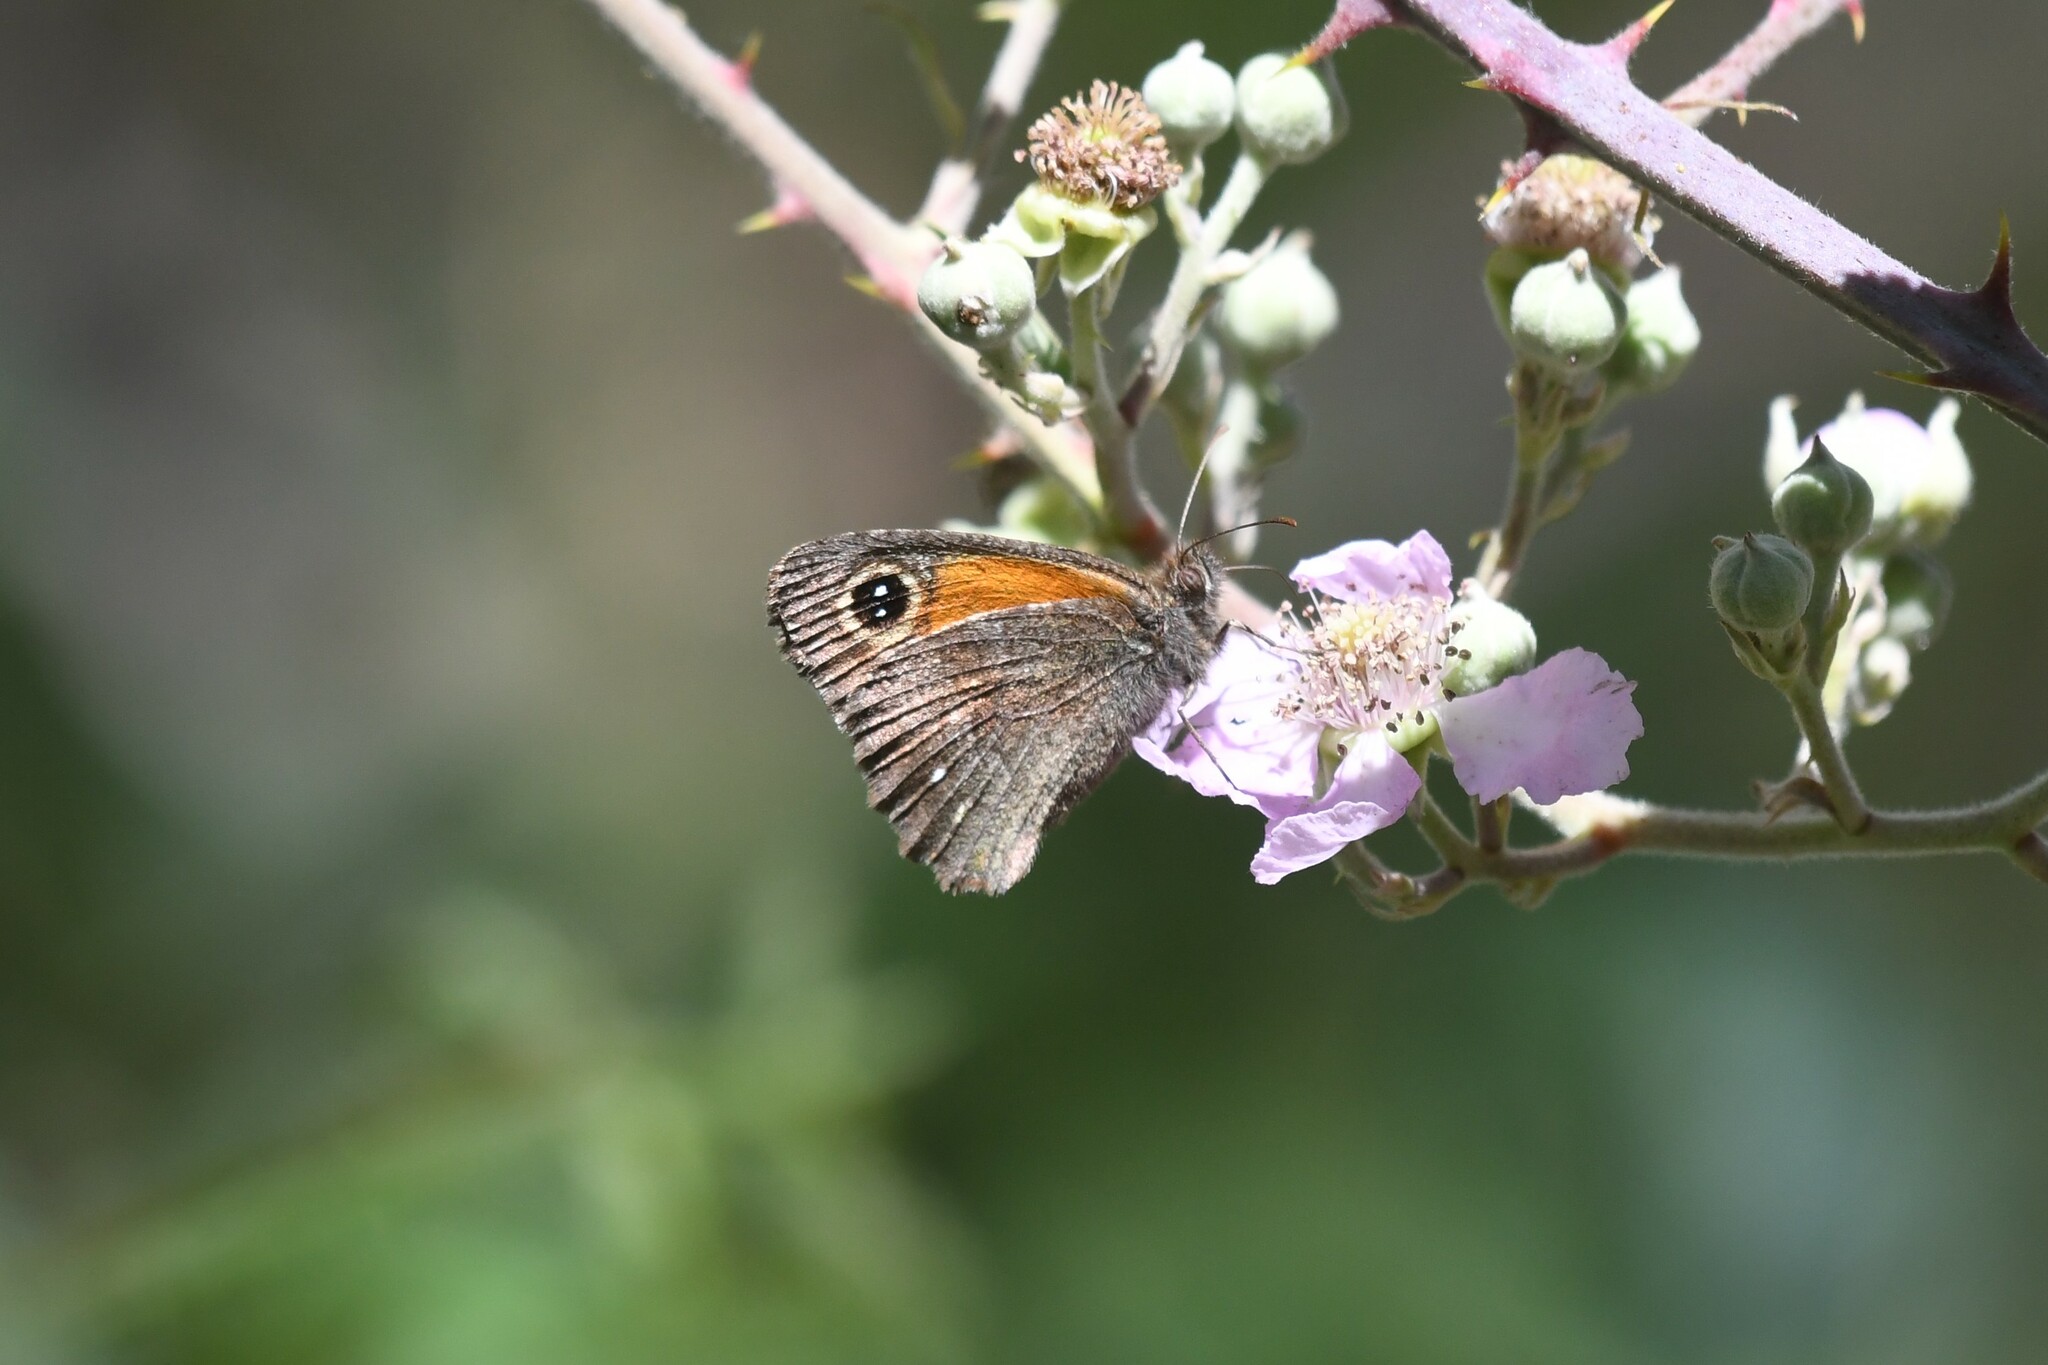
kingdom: Animalia
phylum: Arthropoda
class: Insecta
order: Lepidoptera
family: Nymphalidae
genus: Auca
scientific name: Auca barrosi
